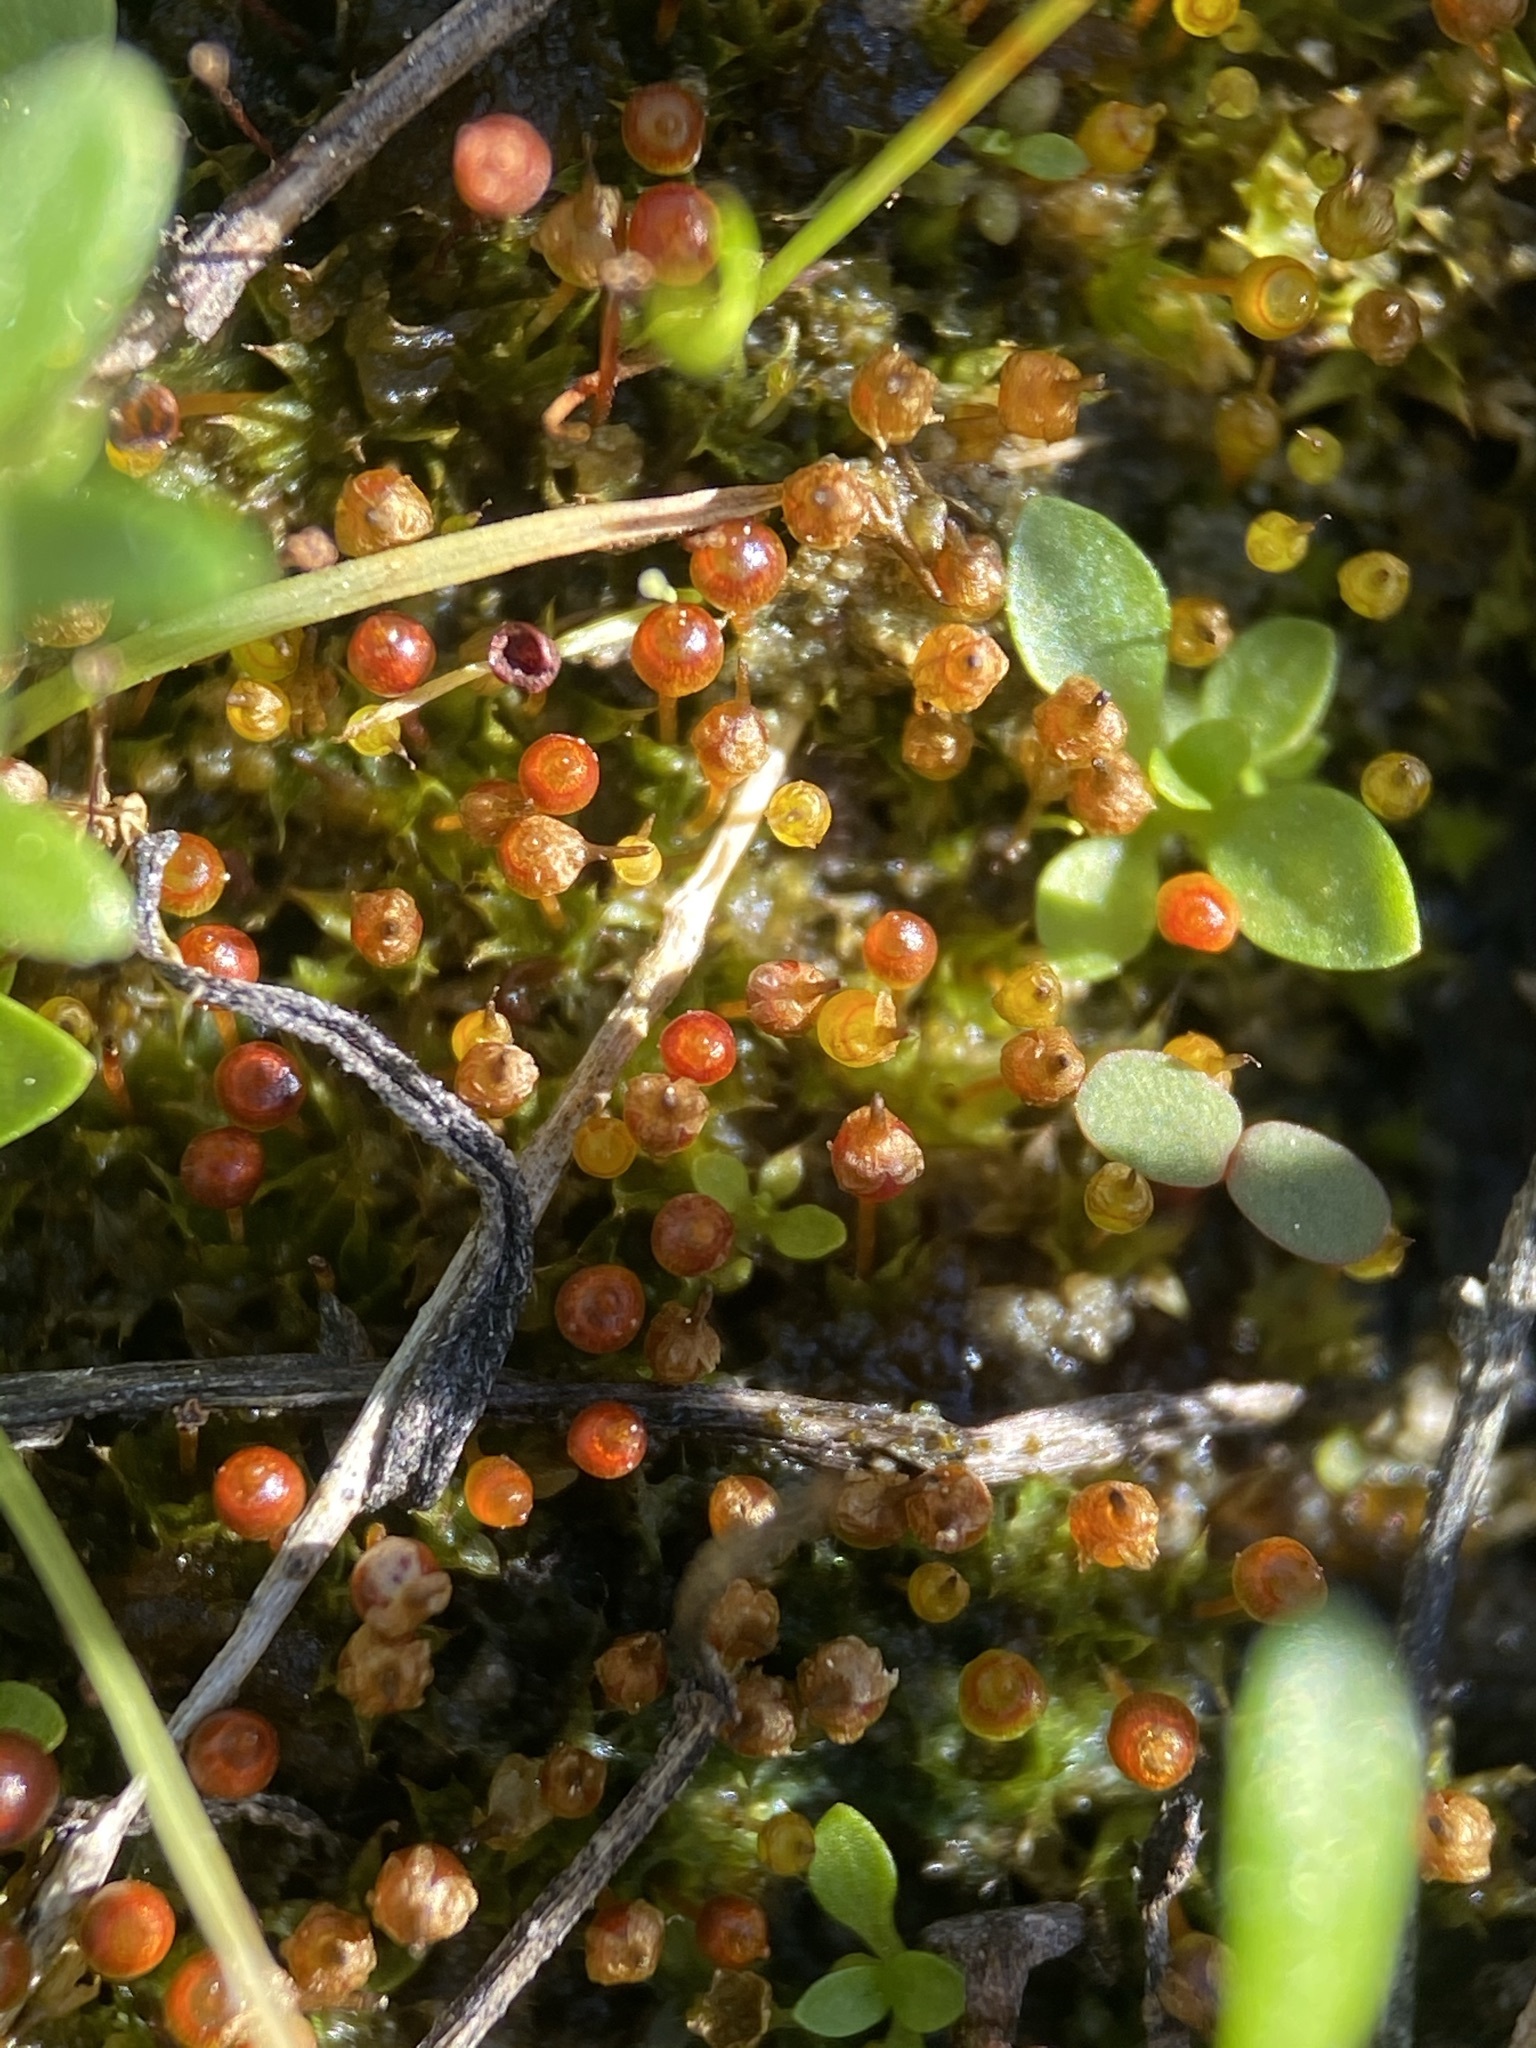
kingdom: Plantae
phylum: Bryophyta
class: Bryopsida
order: Funariales
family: Funariaceae
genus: Physcomitrium
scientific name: Physcomitrium pyriforme
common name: Common bladder-moss
